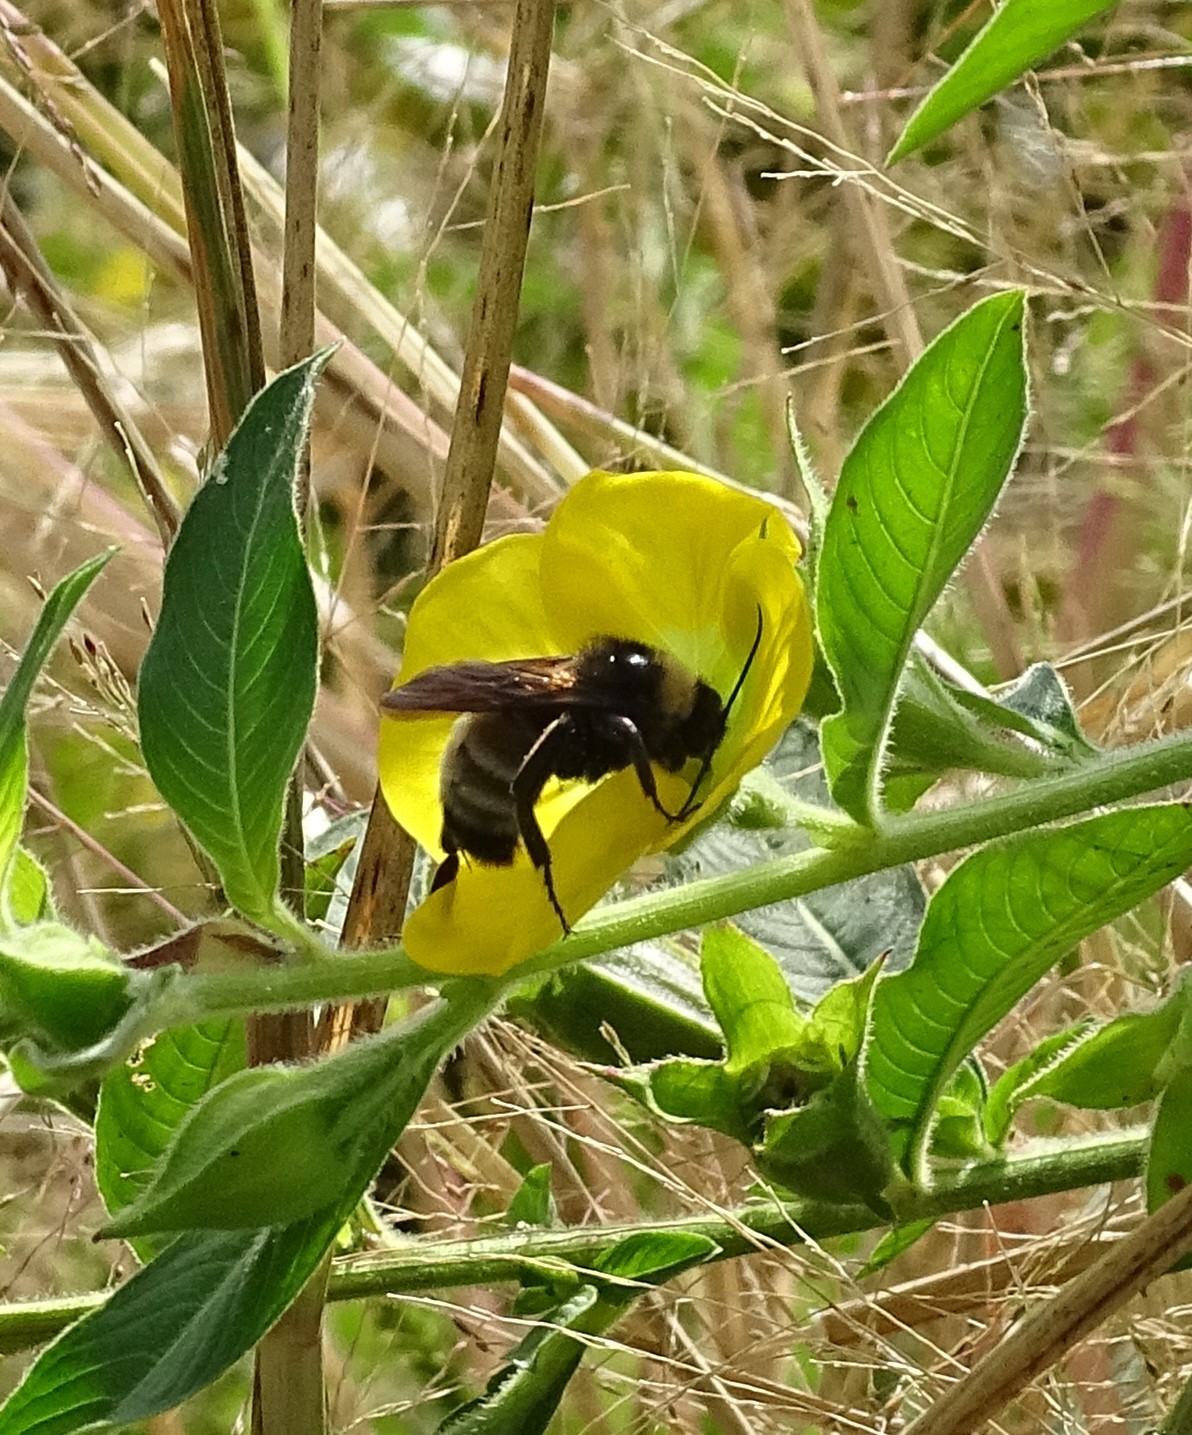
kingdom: Animalia
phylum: Arthropoda
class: Insecta
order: Hymenoptera
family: Apidae
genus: Bombus
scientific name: Bombus pensylvanicus
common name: Bumble bee
